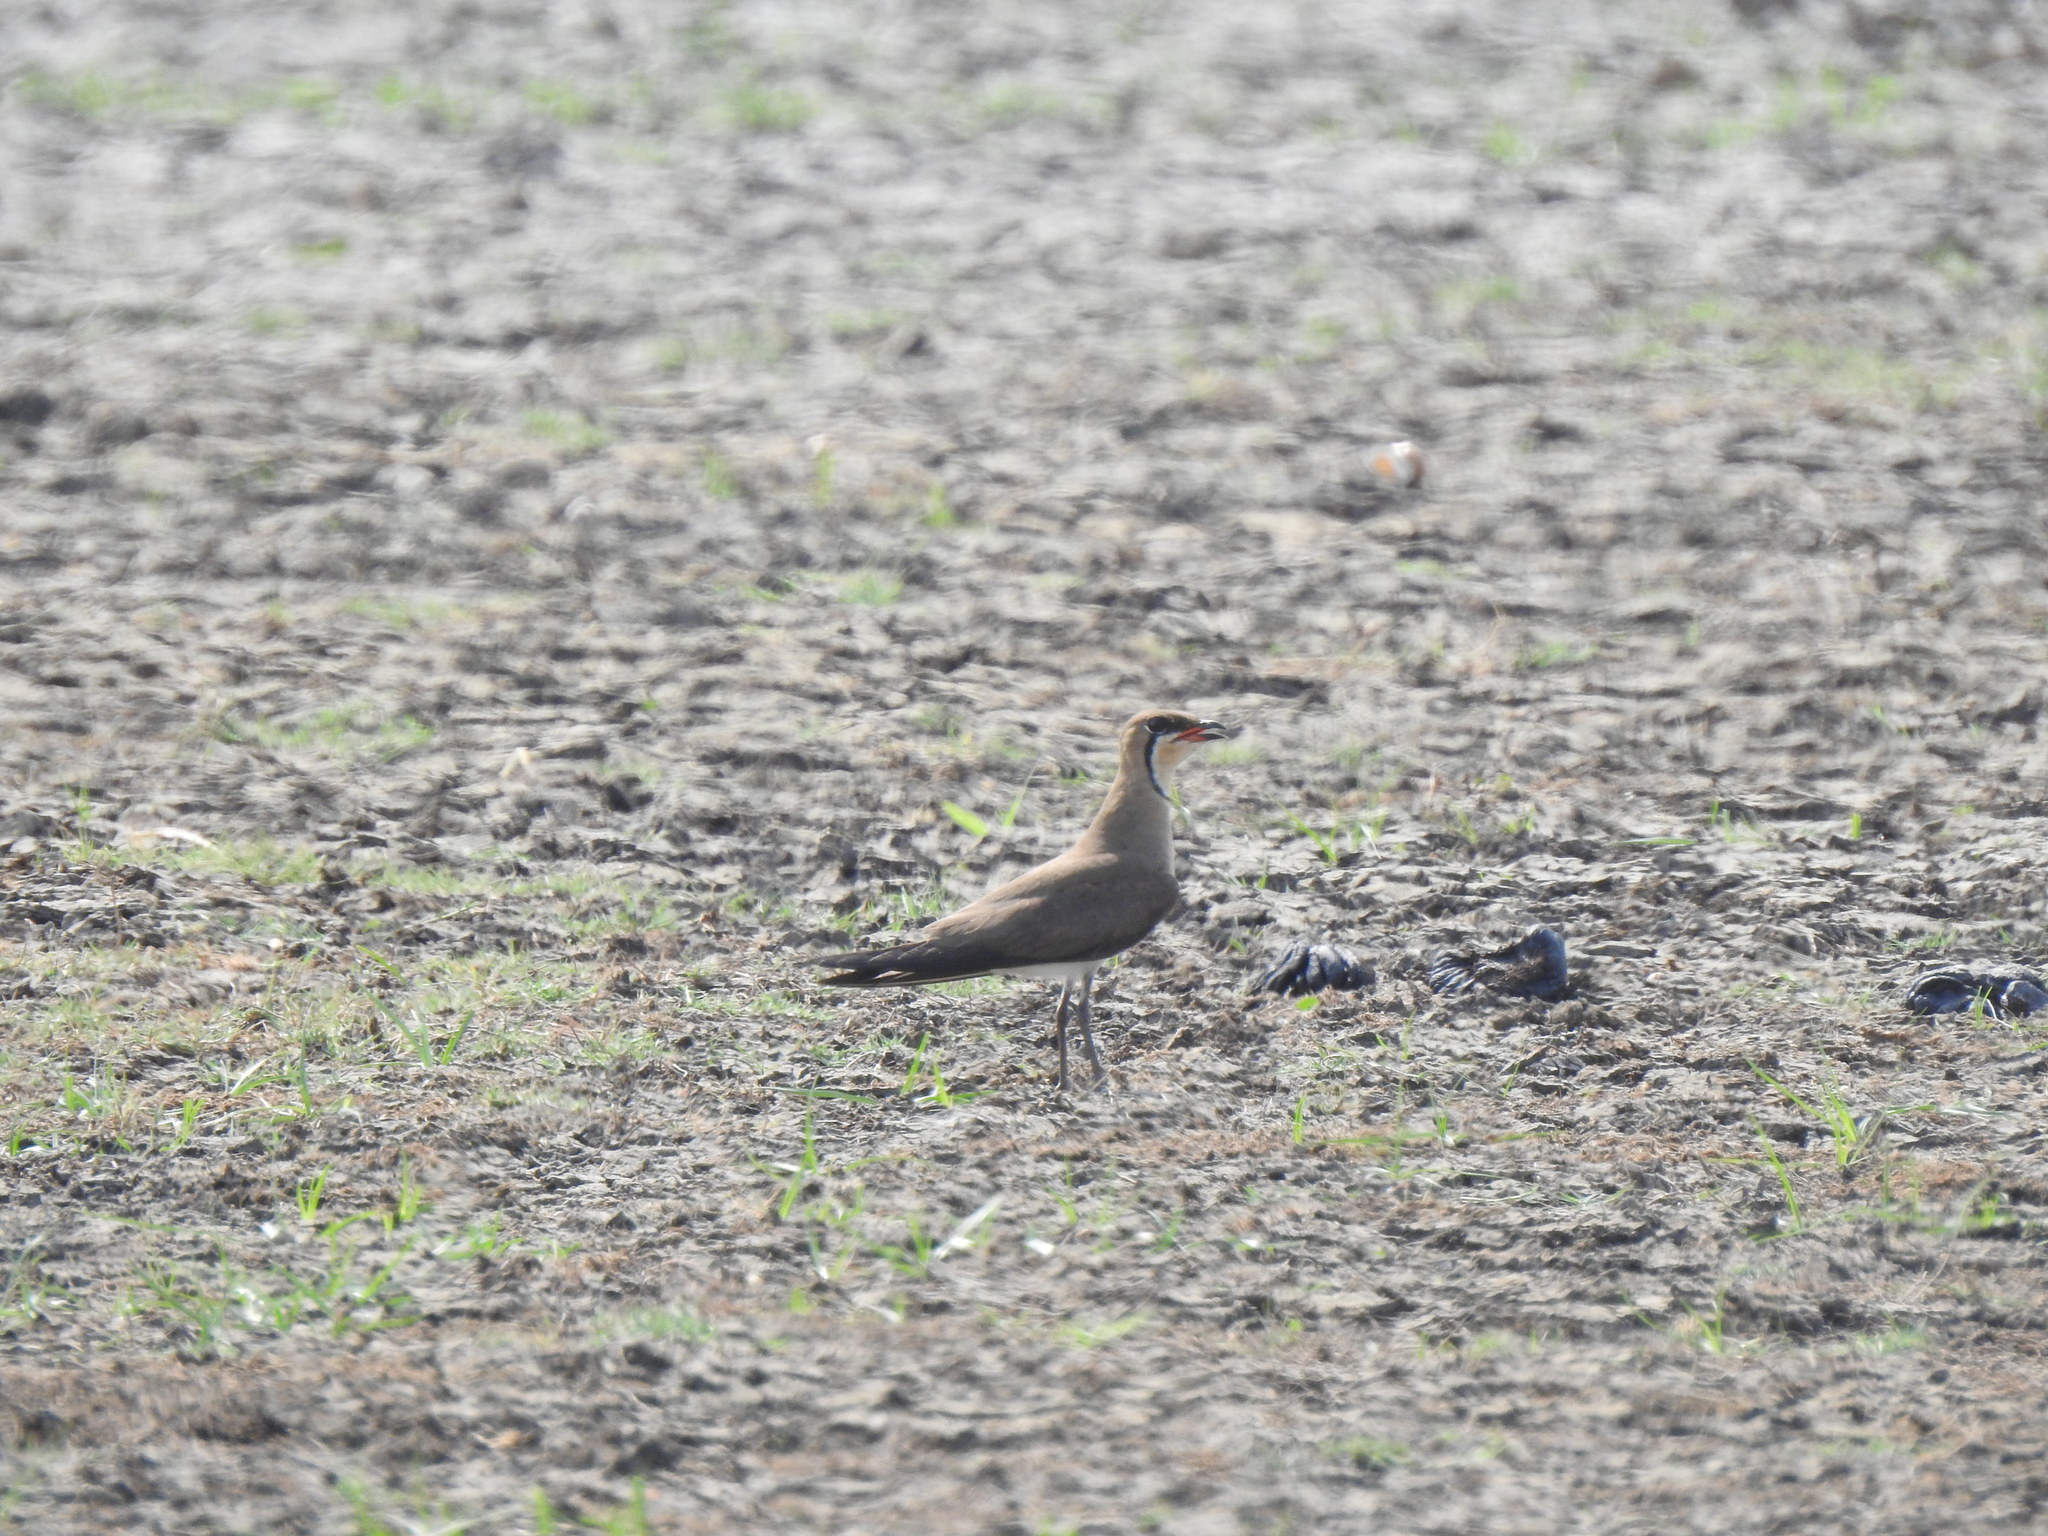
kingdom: Animalia
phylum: Chordata
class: Aves
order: Charadriiformes
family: Glareolidae
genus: Glareola
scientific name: Glareola maldivarum
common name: Oriental pratincole
